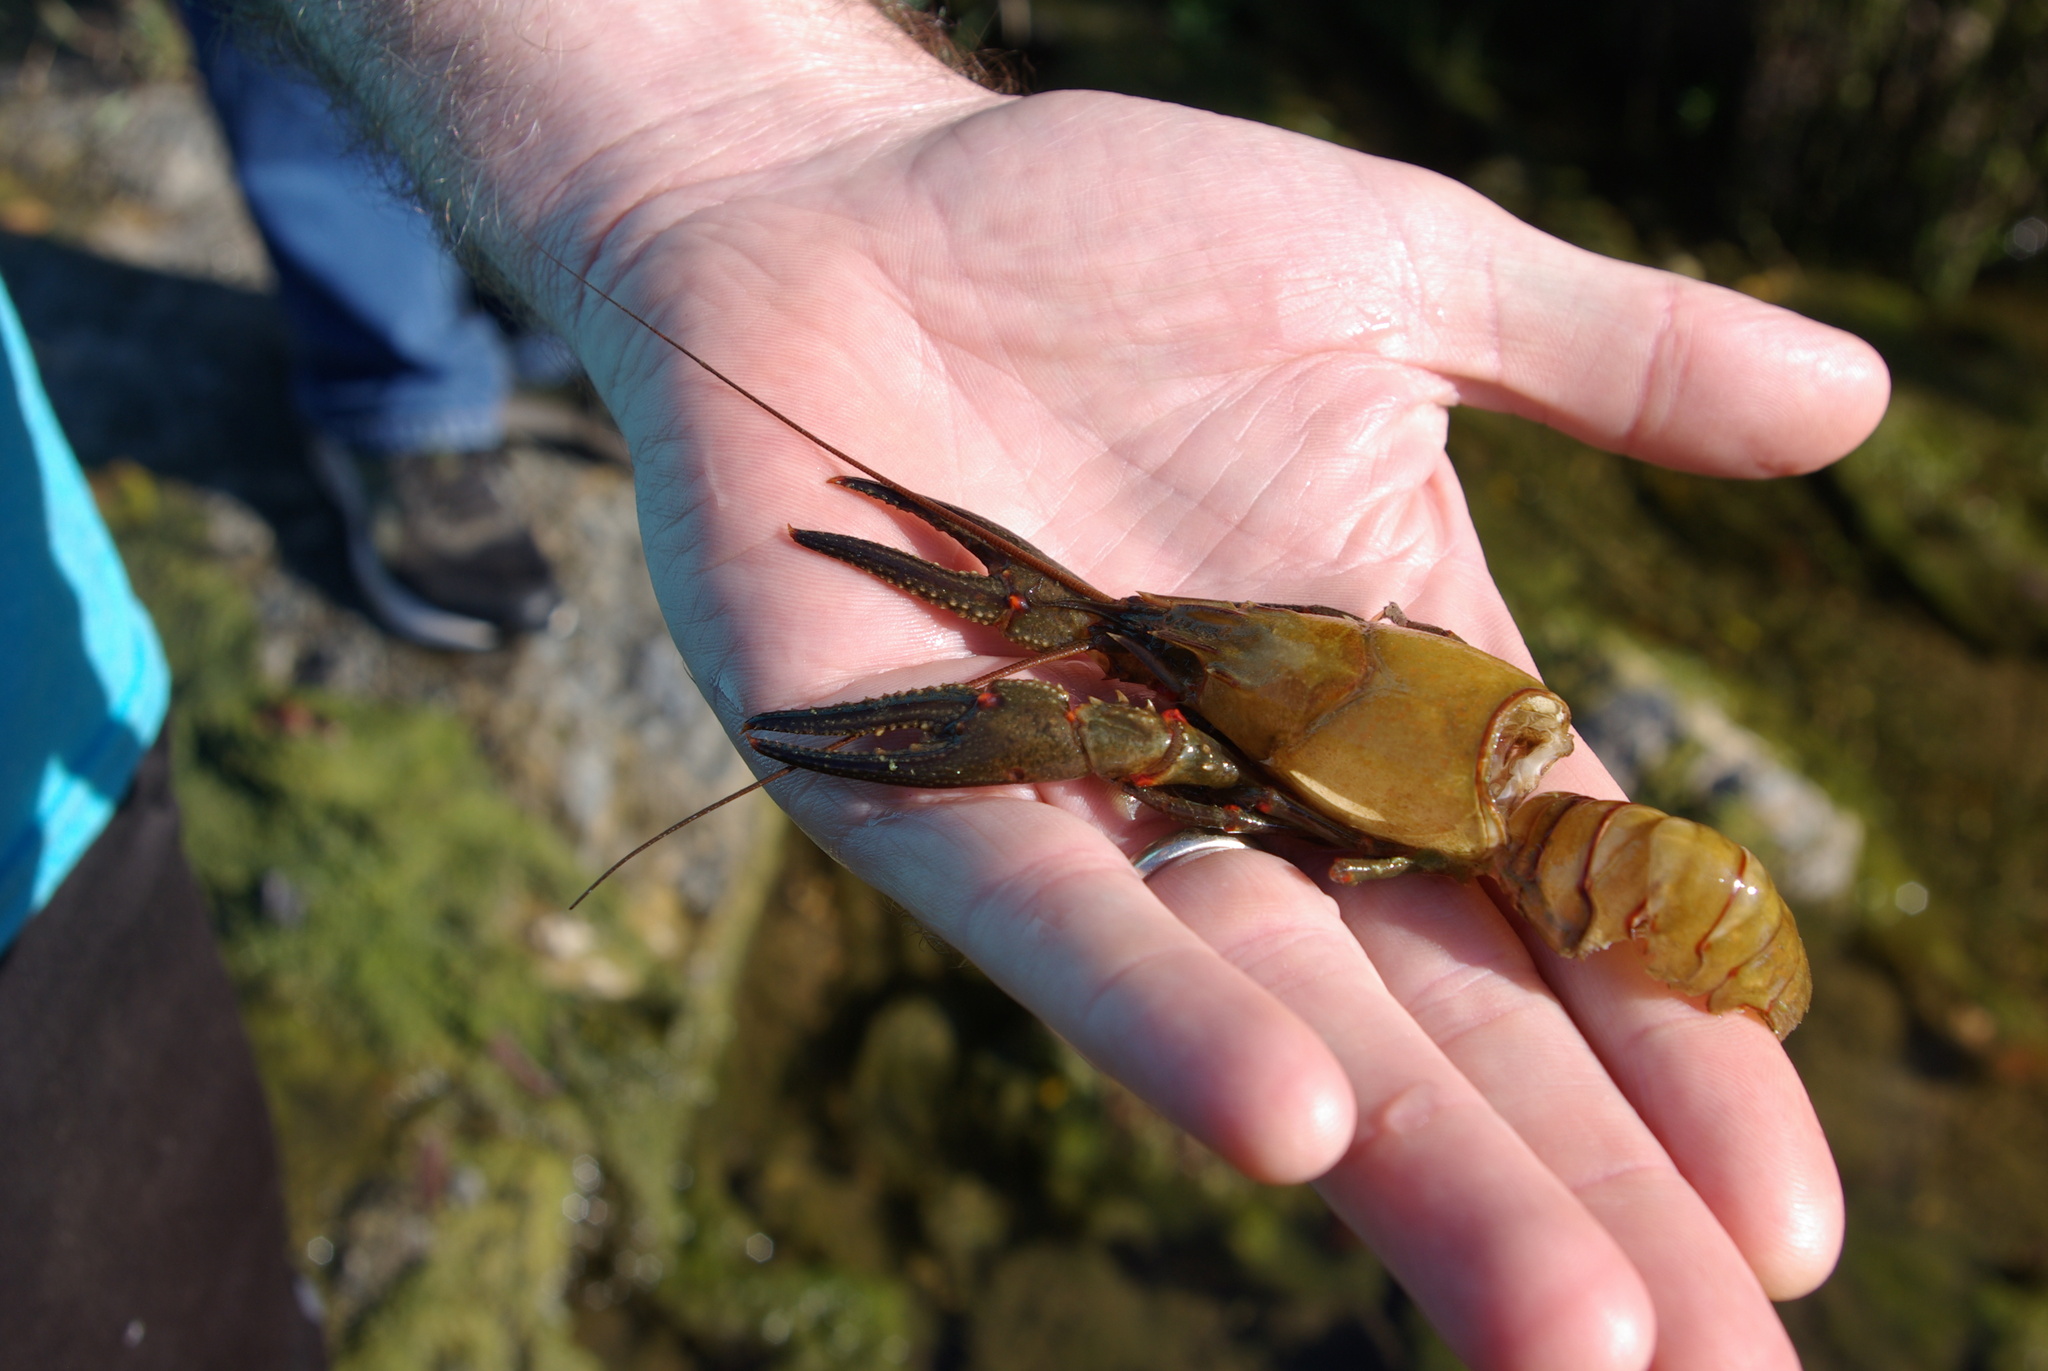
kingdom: Animalia
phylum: Arthropoda
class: Malacostraca
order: Decapoda
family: Cambaridae
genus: Faxonius
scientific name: Faxonius longidigitus
